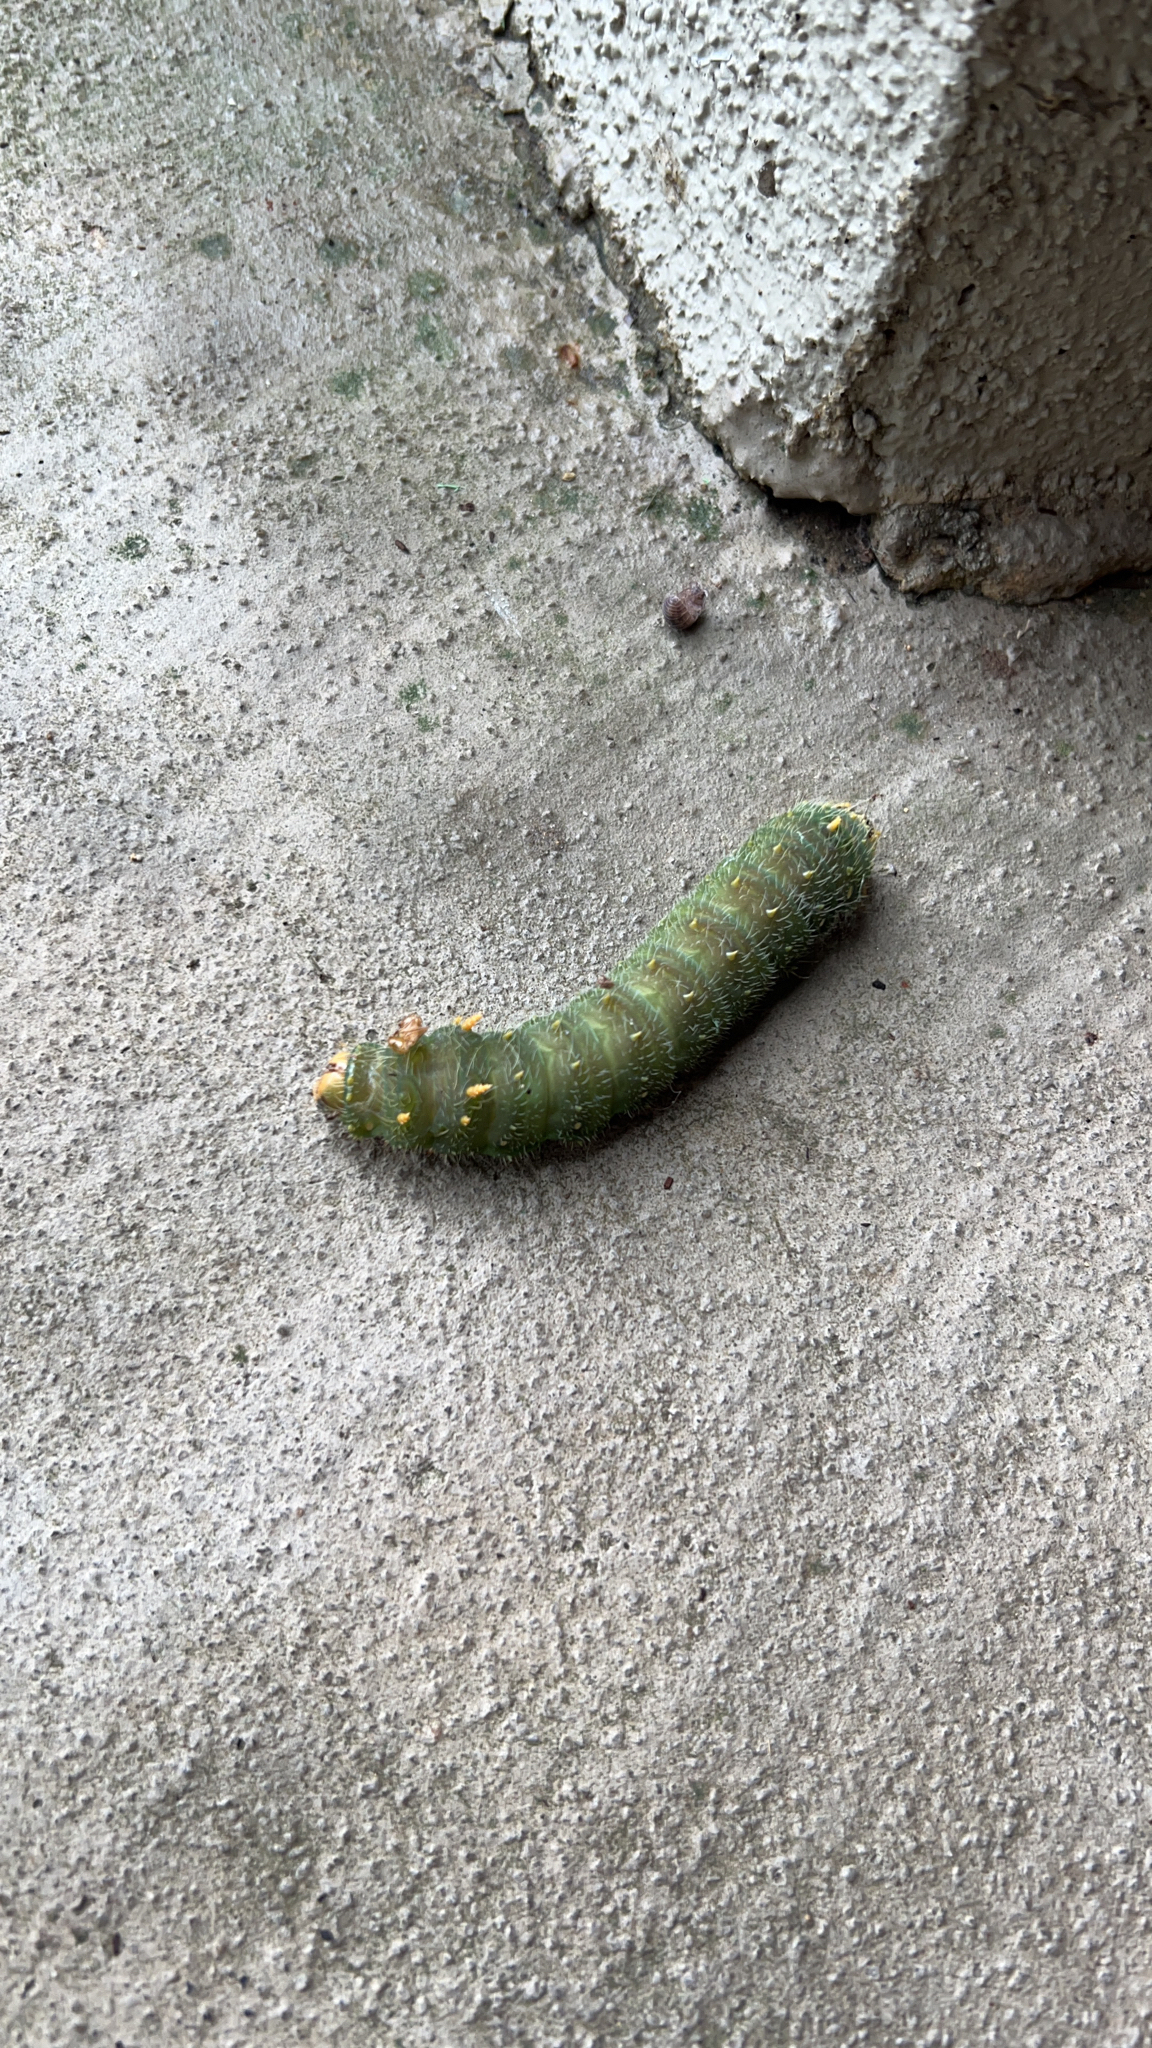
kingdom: Animalia
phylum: Arthropoda
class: Insecta
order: Lepidoptera
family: Saturniidae
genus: Eacles
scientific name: Eacles imperialis
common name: Imperial moth
